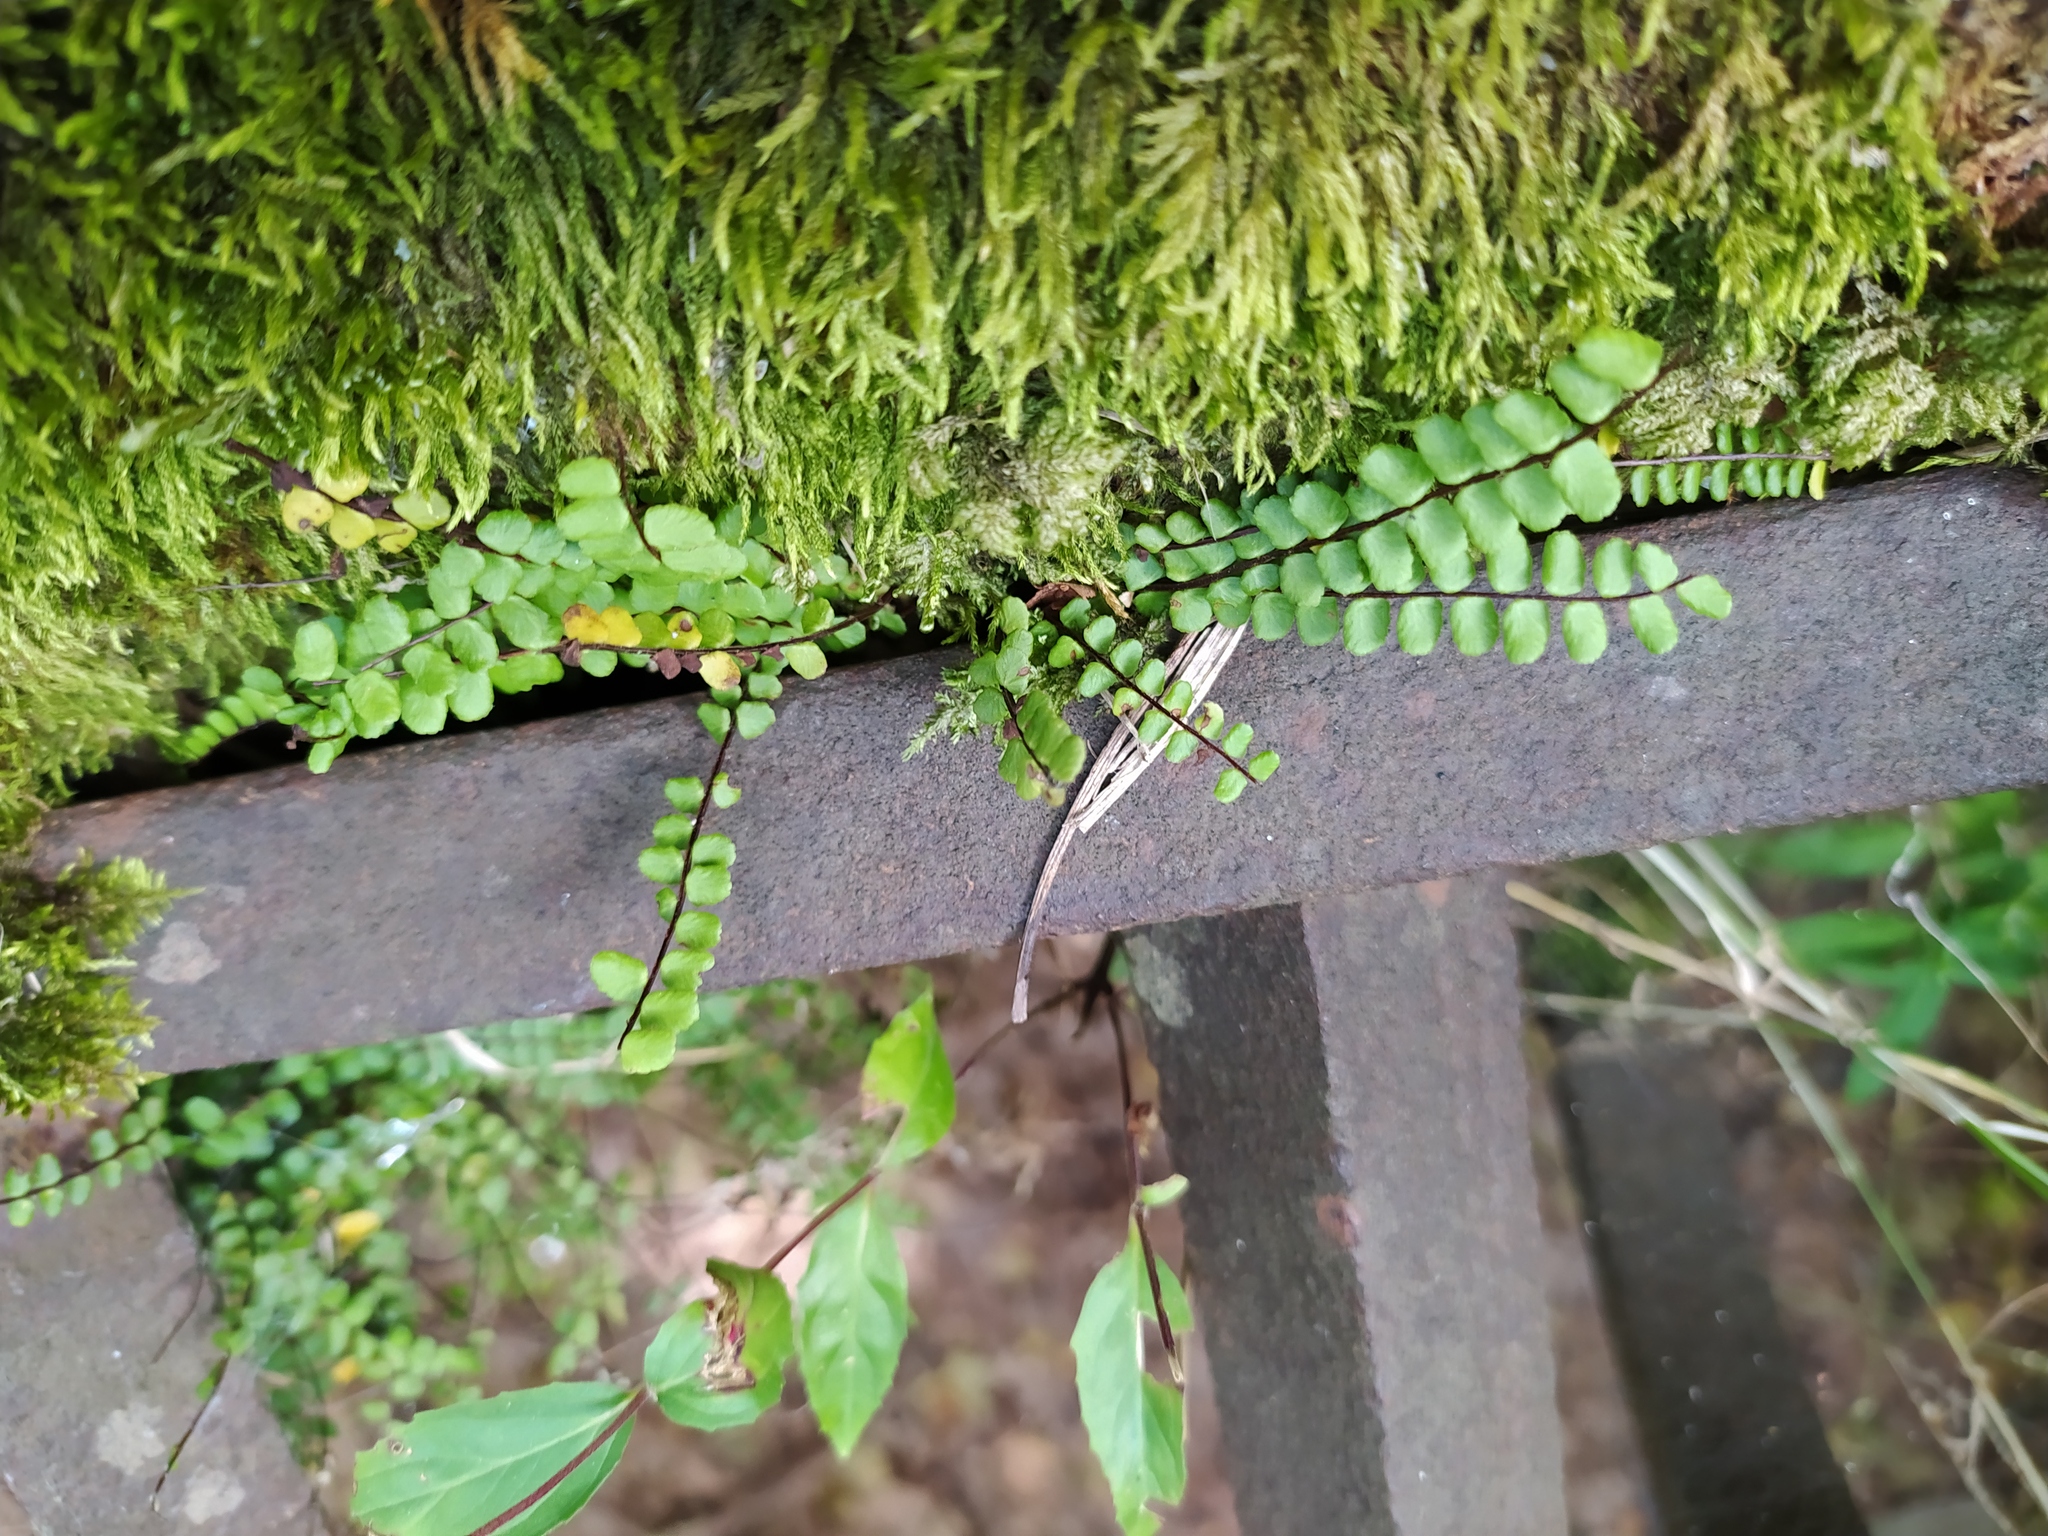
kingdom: Plantae
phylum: Tracheophyta
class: Polypodiopsida
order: Polypodiales
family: Aspleniaceae
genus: Asplenium
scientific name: Asplenium trichomanes
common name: Maidenhair spleenwort
